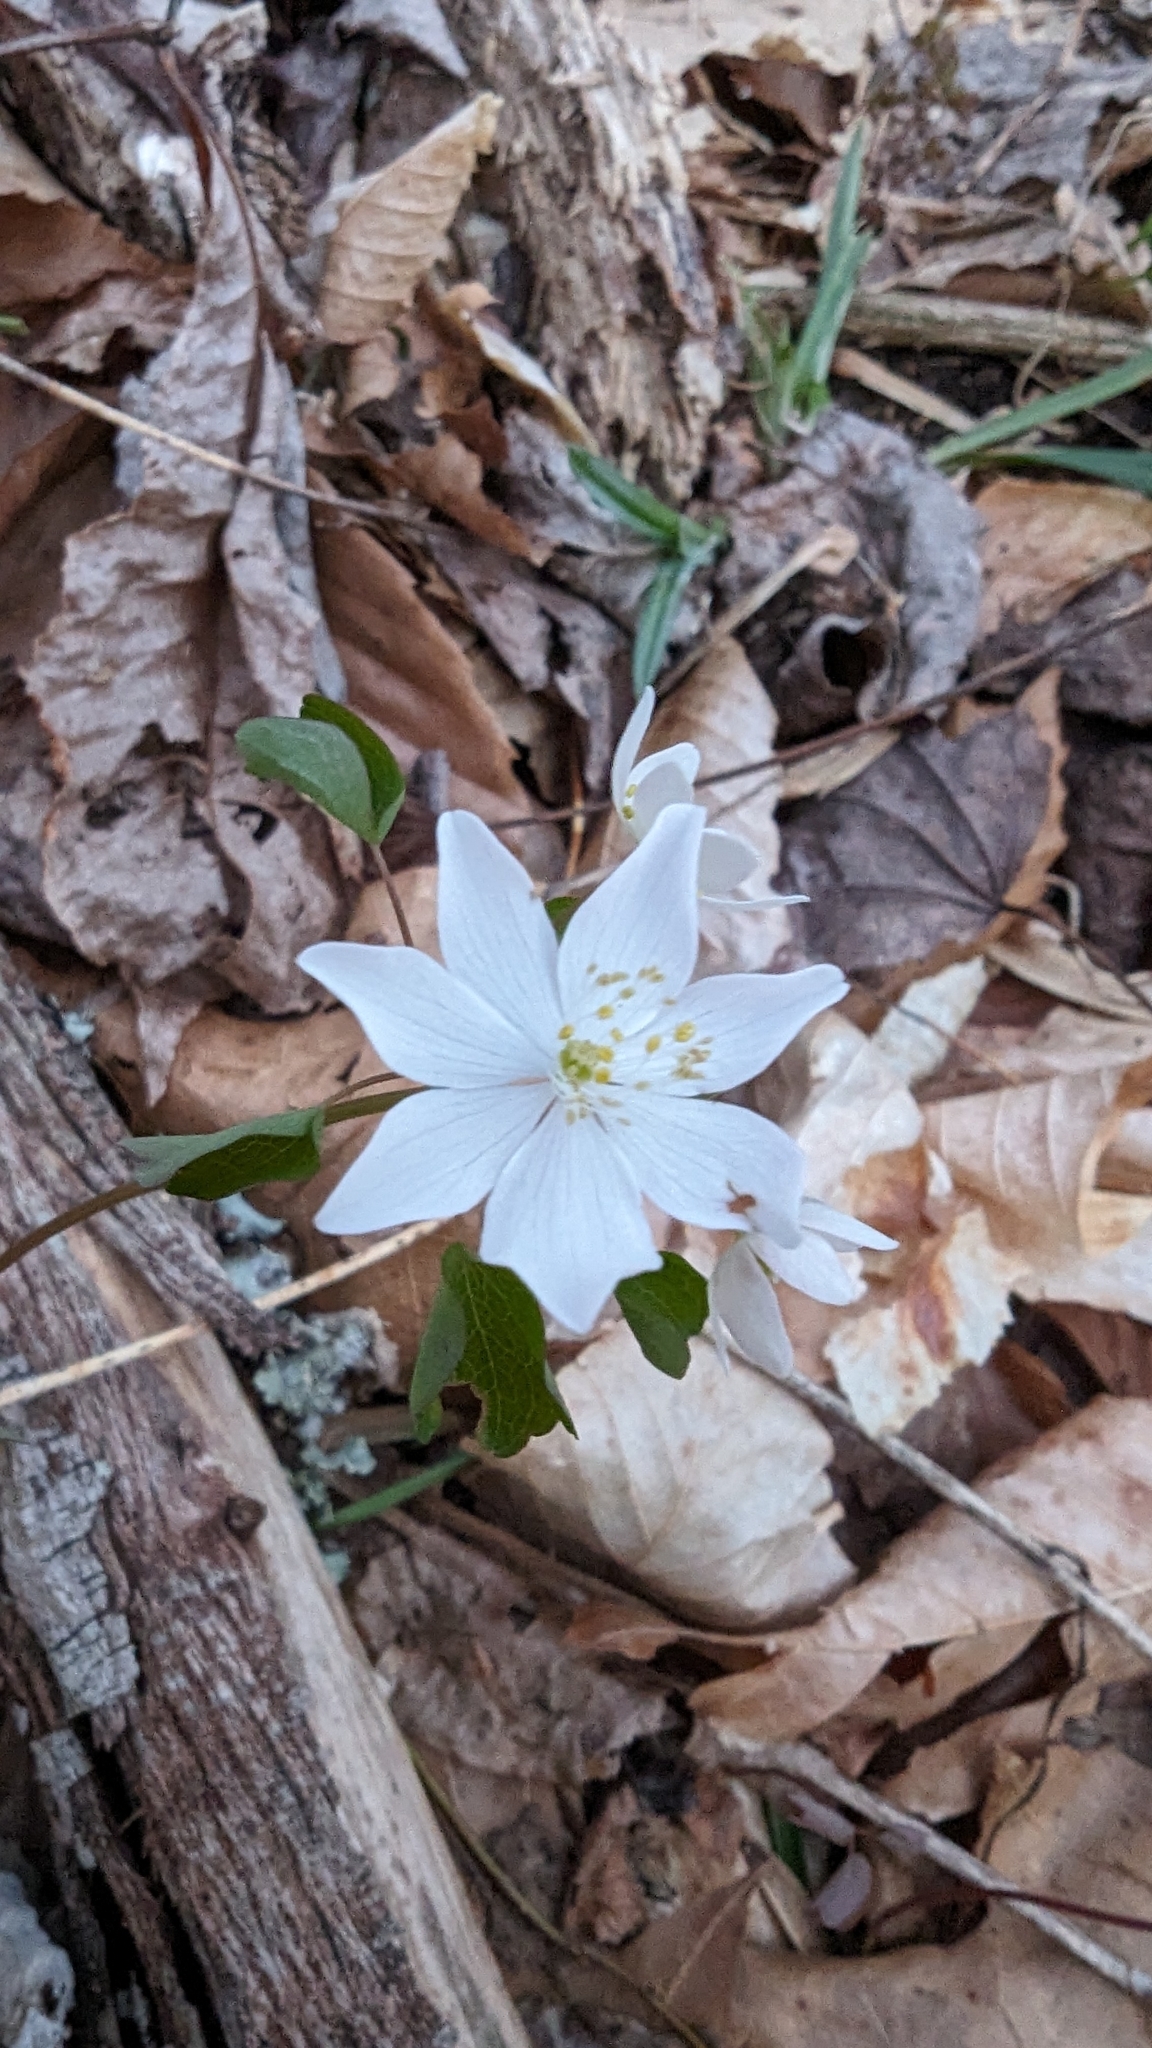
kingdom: Plantae
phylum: Tracheophyta
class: Magnoliopsida
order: Ranunculales
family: Ranunculaceae
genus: Thalictrum
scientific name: Thalictrum thalictroides
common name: Rue-anemone
